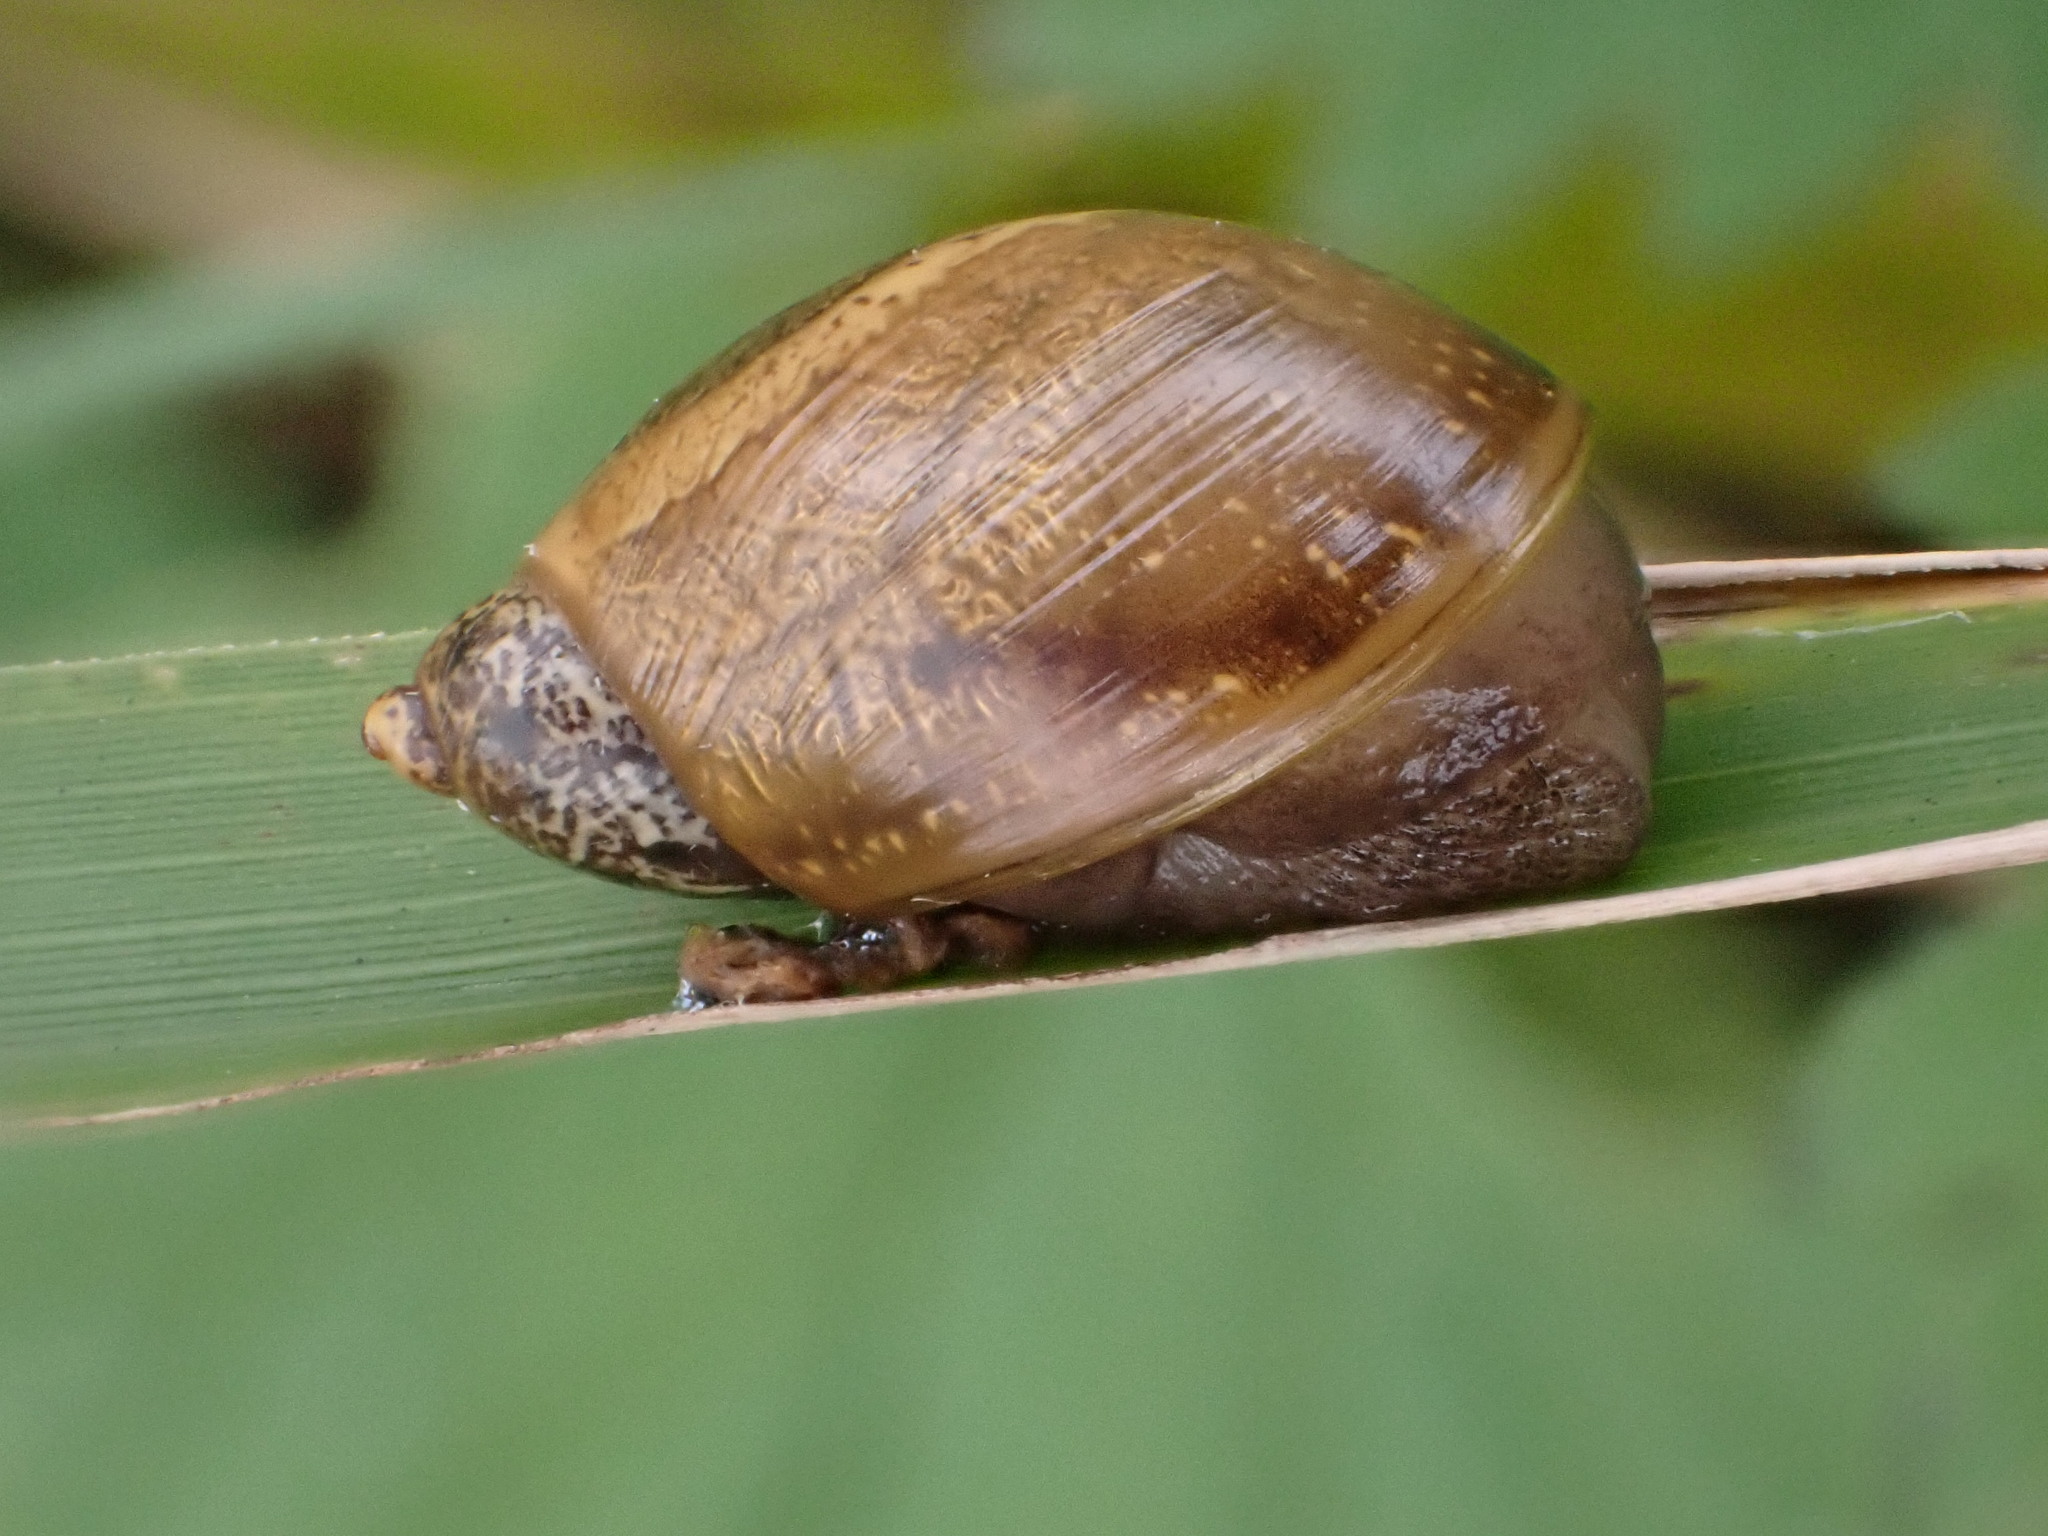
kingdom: Animalia
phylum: Mollusca
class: Gastropoda
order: Stylommatophora
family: Succineidae
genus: Succinea
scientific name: Succinea putris
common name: European ambersnail
